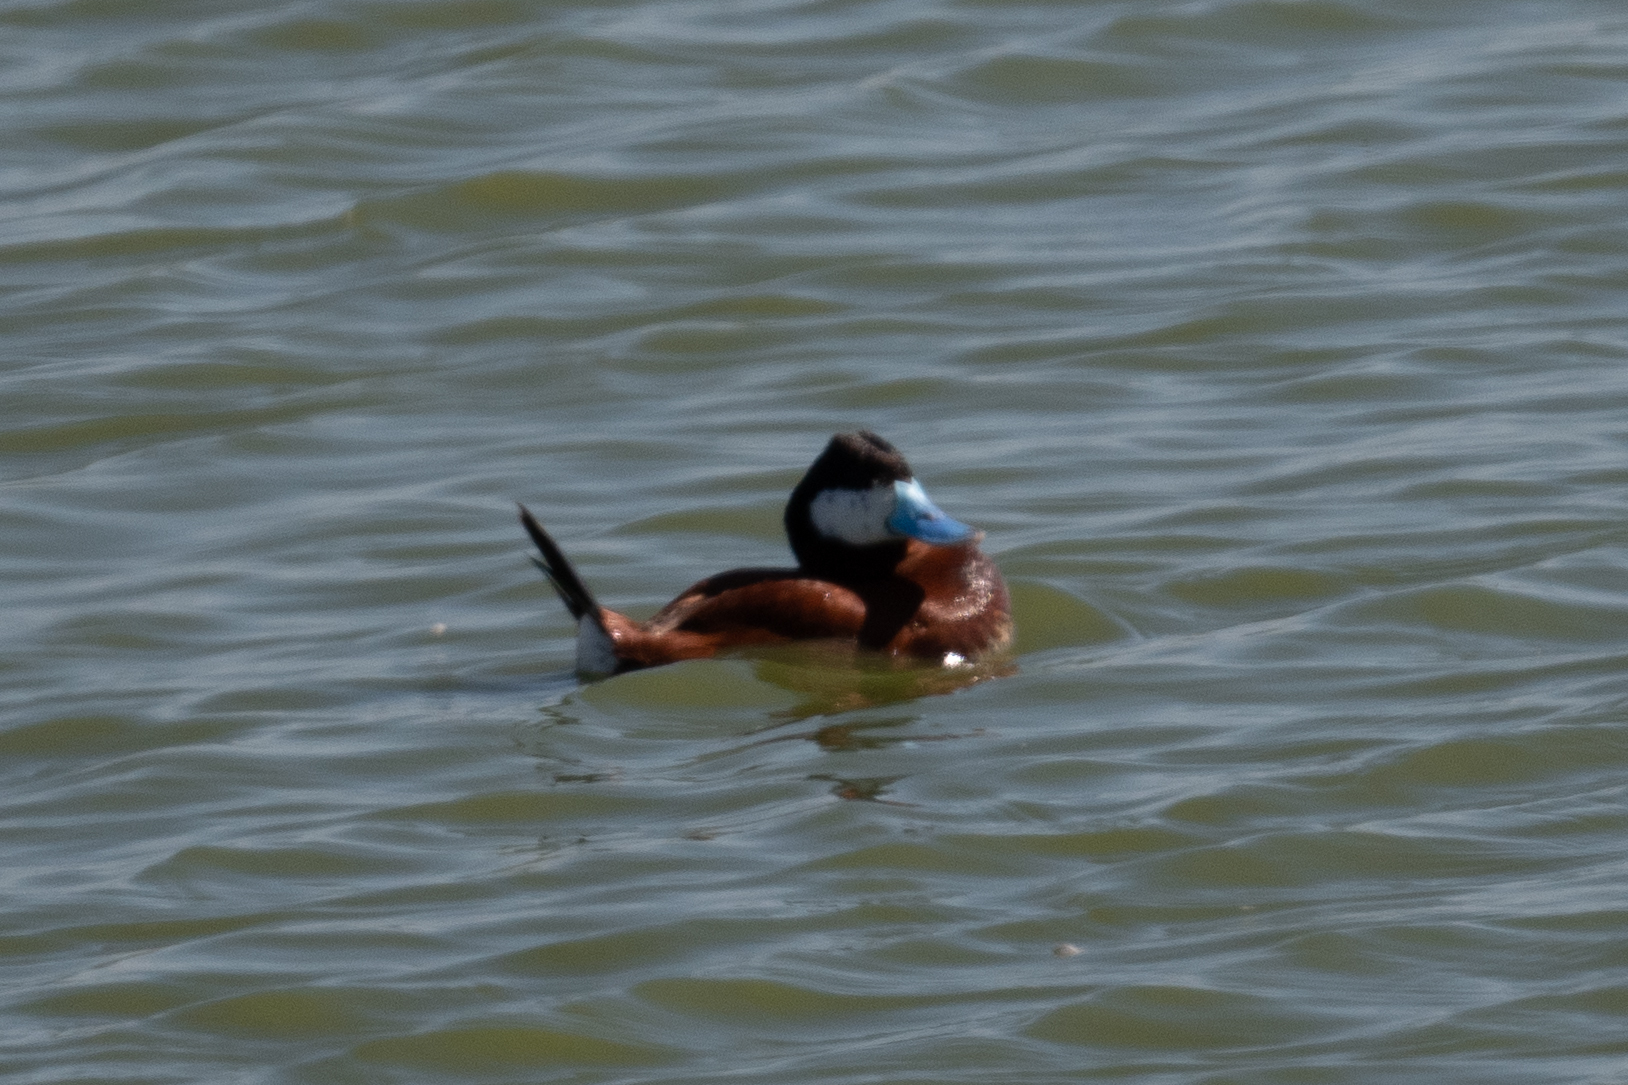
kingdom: Animalia
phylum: Chordata
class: Aves
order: Anseriformes
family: Anatidae
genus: Oxyura
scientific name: Oxyura jamaicensis
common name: Ruddy duck
